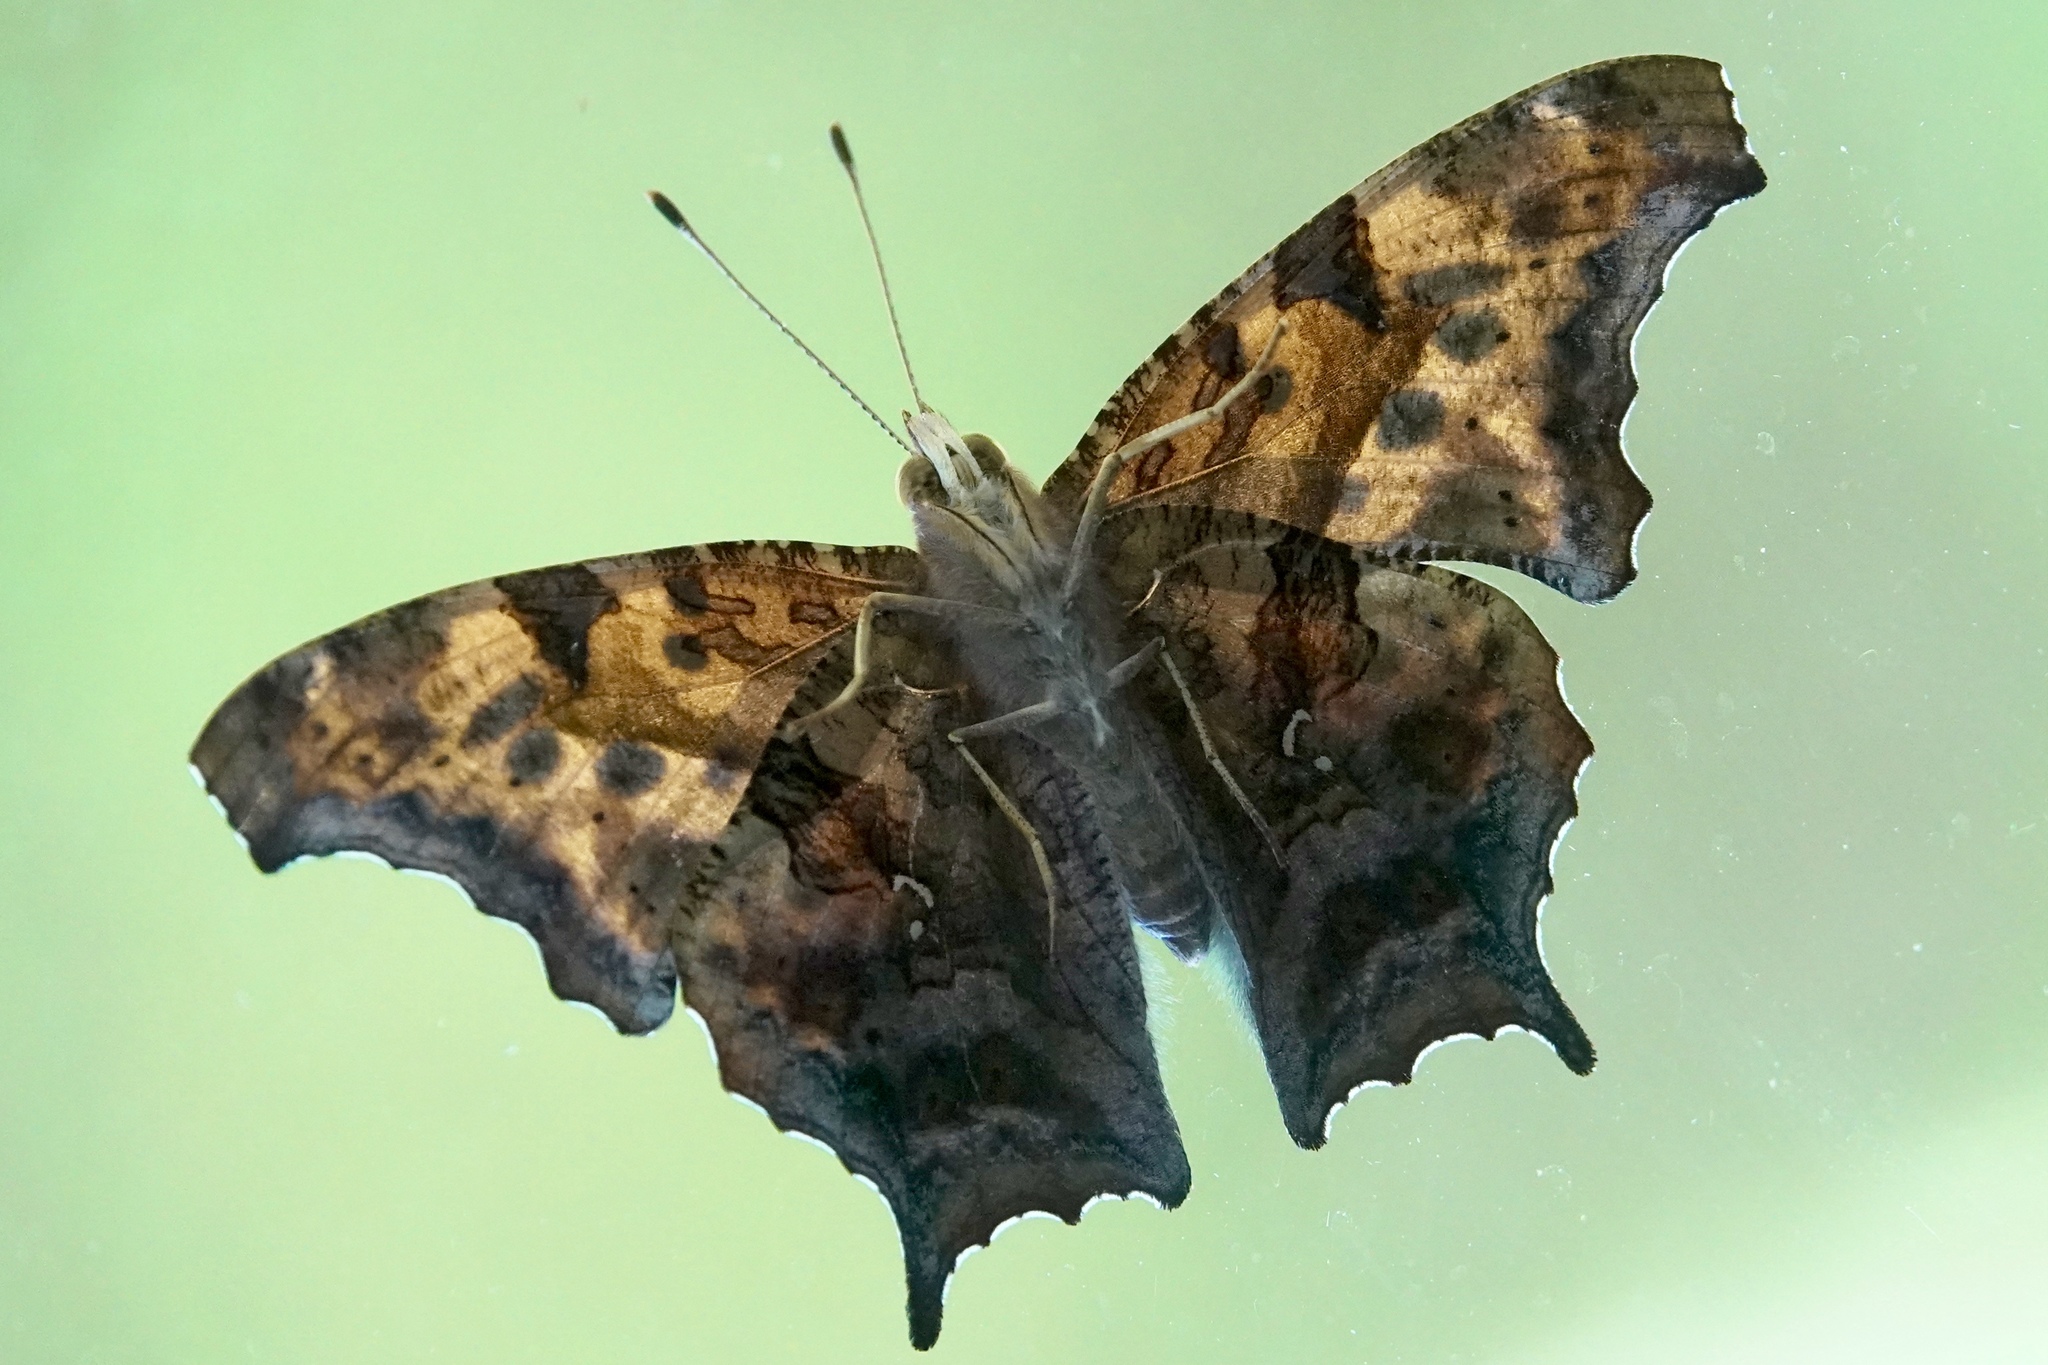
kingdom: Animalia
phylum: Arthropoda
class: Insecta
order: Lepidoptera
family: Nymphalidae
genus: Polygonia
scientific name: Polygonia interrogationis
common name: Question mark
